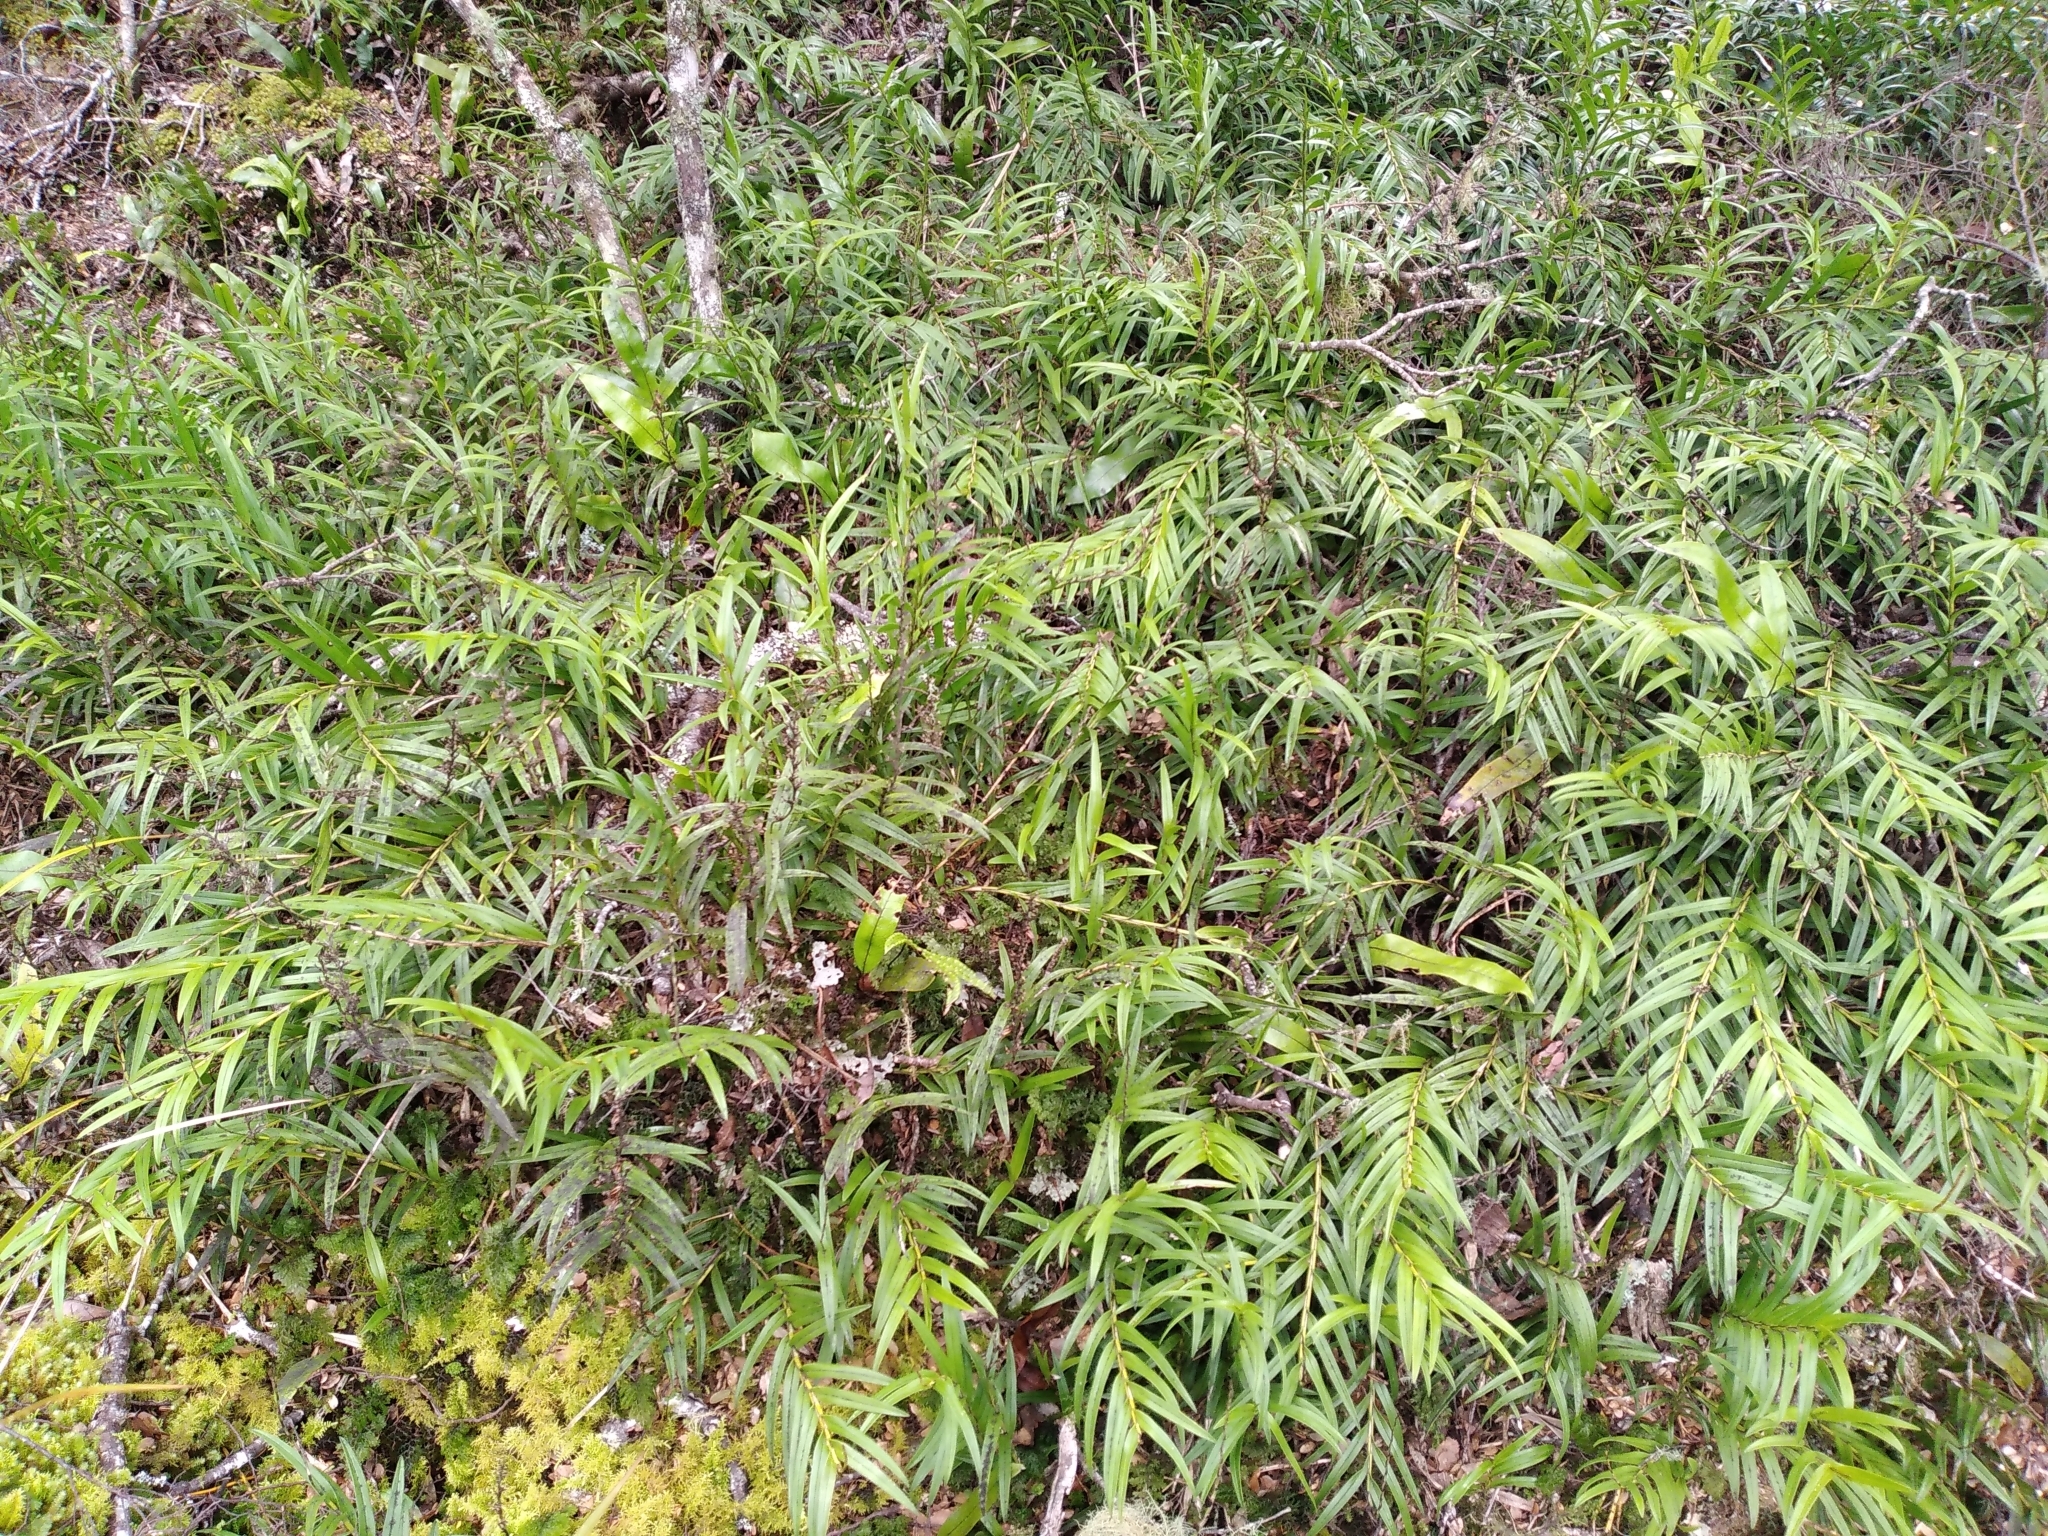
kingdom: Plantae
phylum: Tracheophyta
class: Liliopsida
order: Asparagales
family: Orchidaceae
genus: Earina
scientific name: Earina autumnalis
